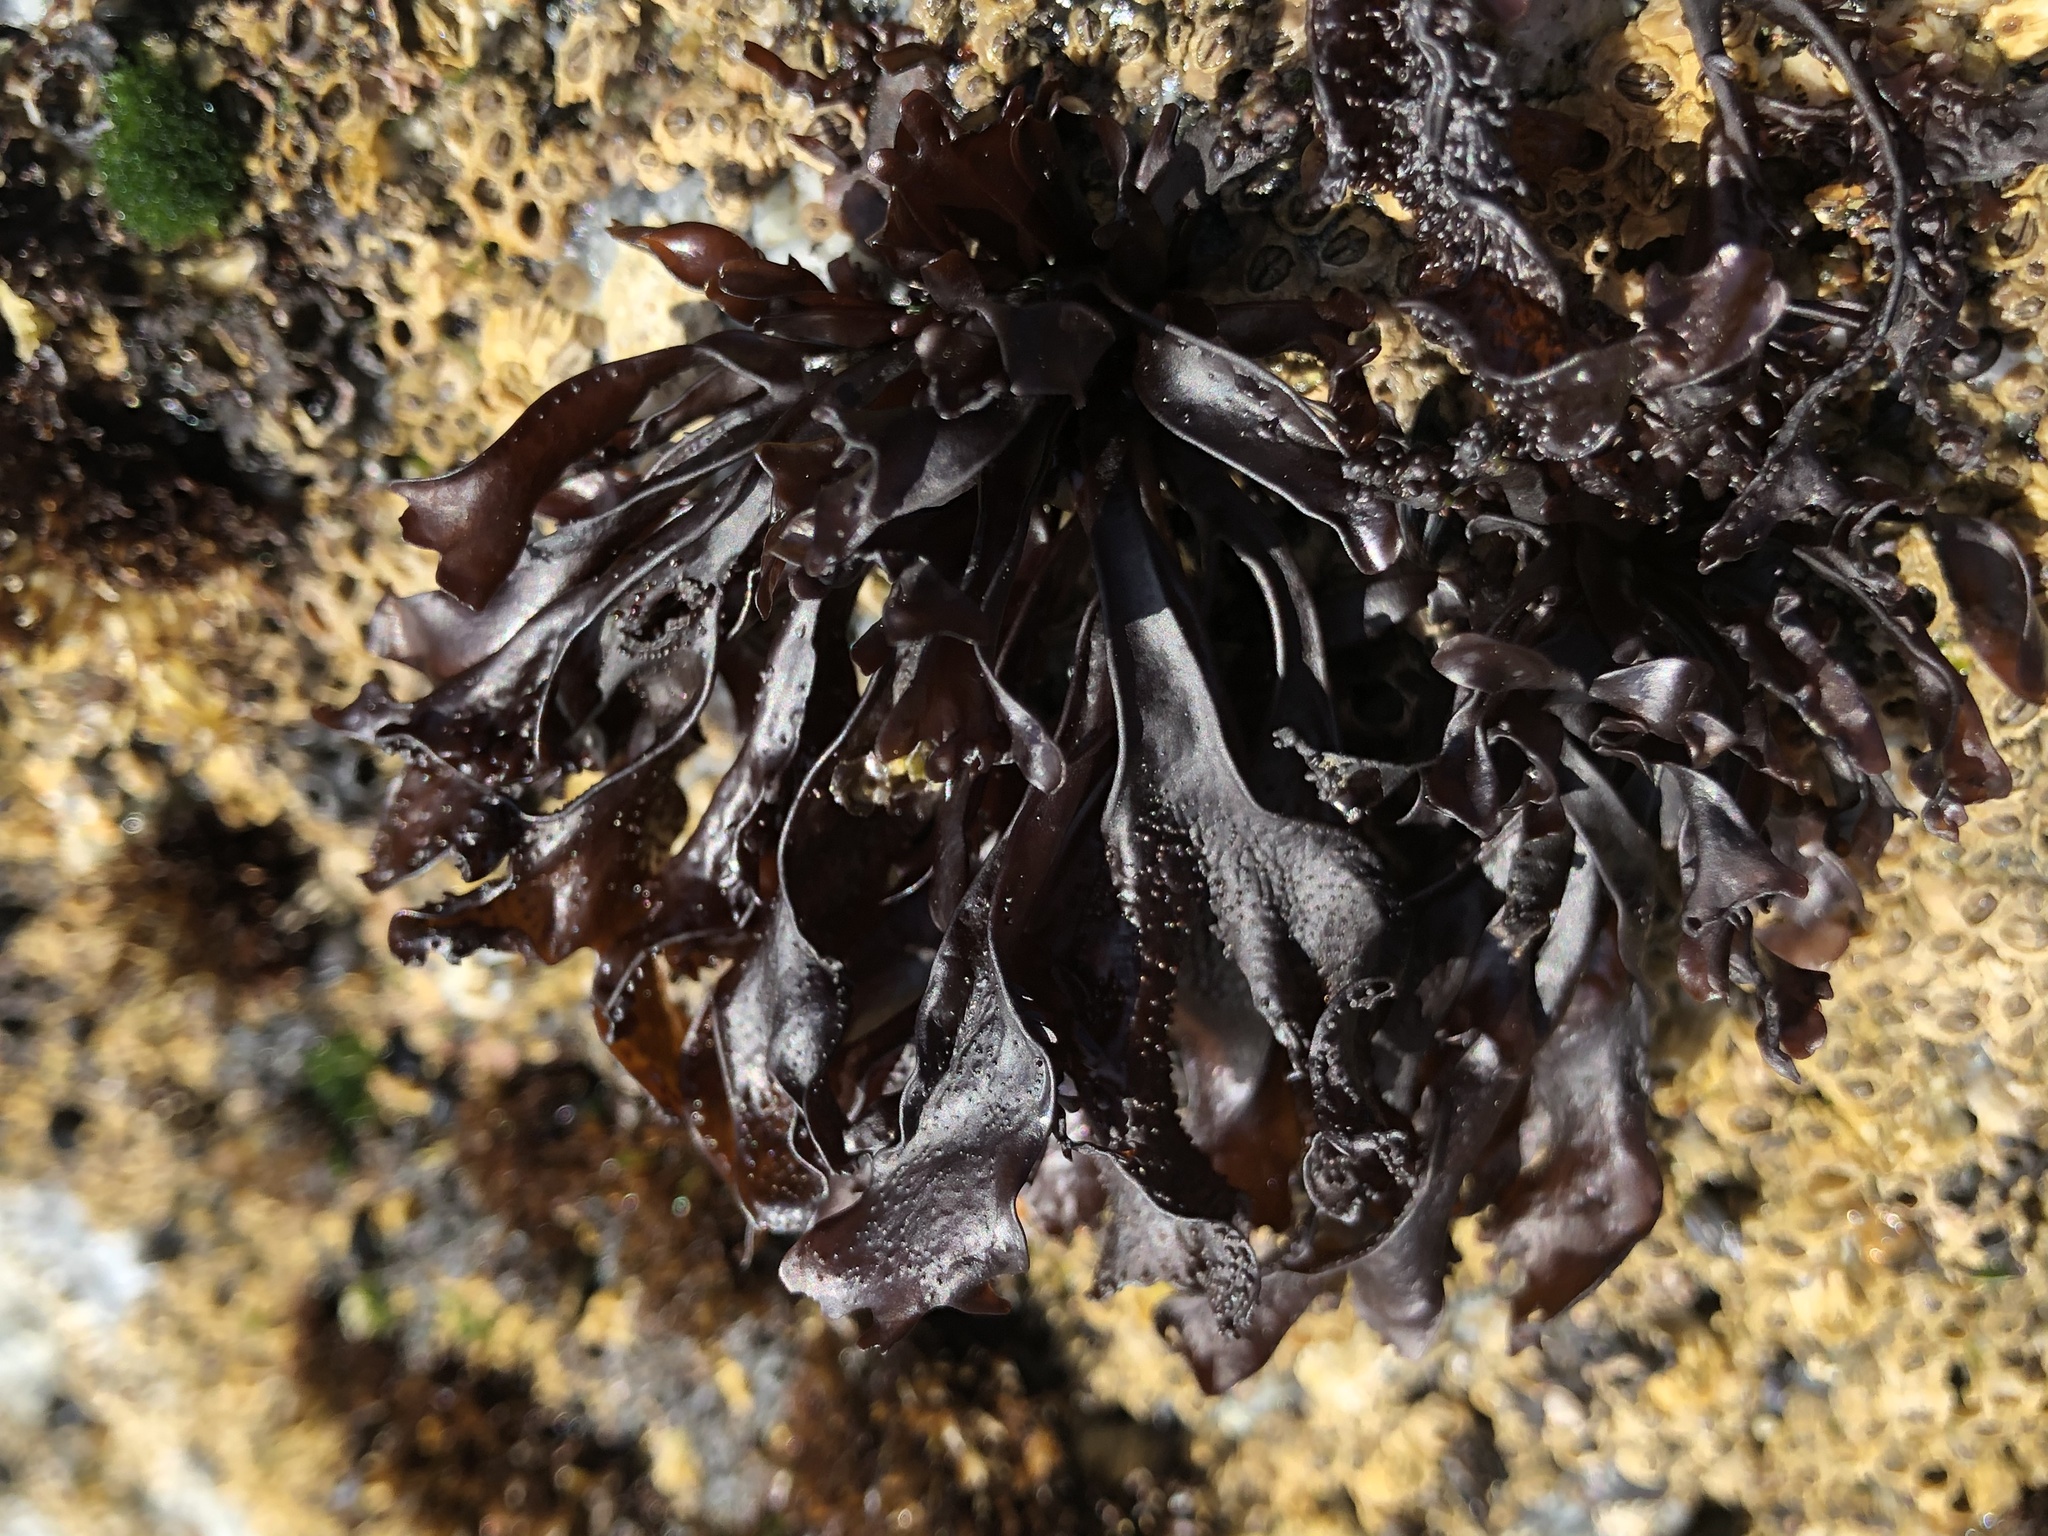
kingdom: Plantae
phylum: Rhodophyta
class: Florideophyceae
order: Gigartinales
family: Phyllophoraceae
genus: Mastocarpus
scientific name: Mastocarpus papillatus
